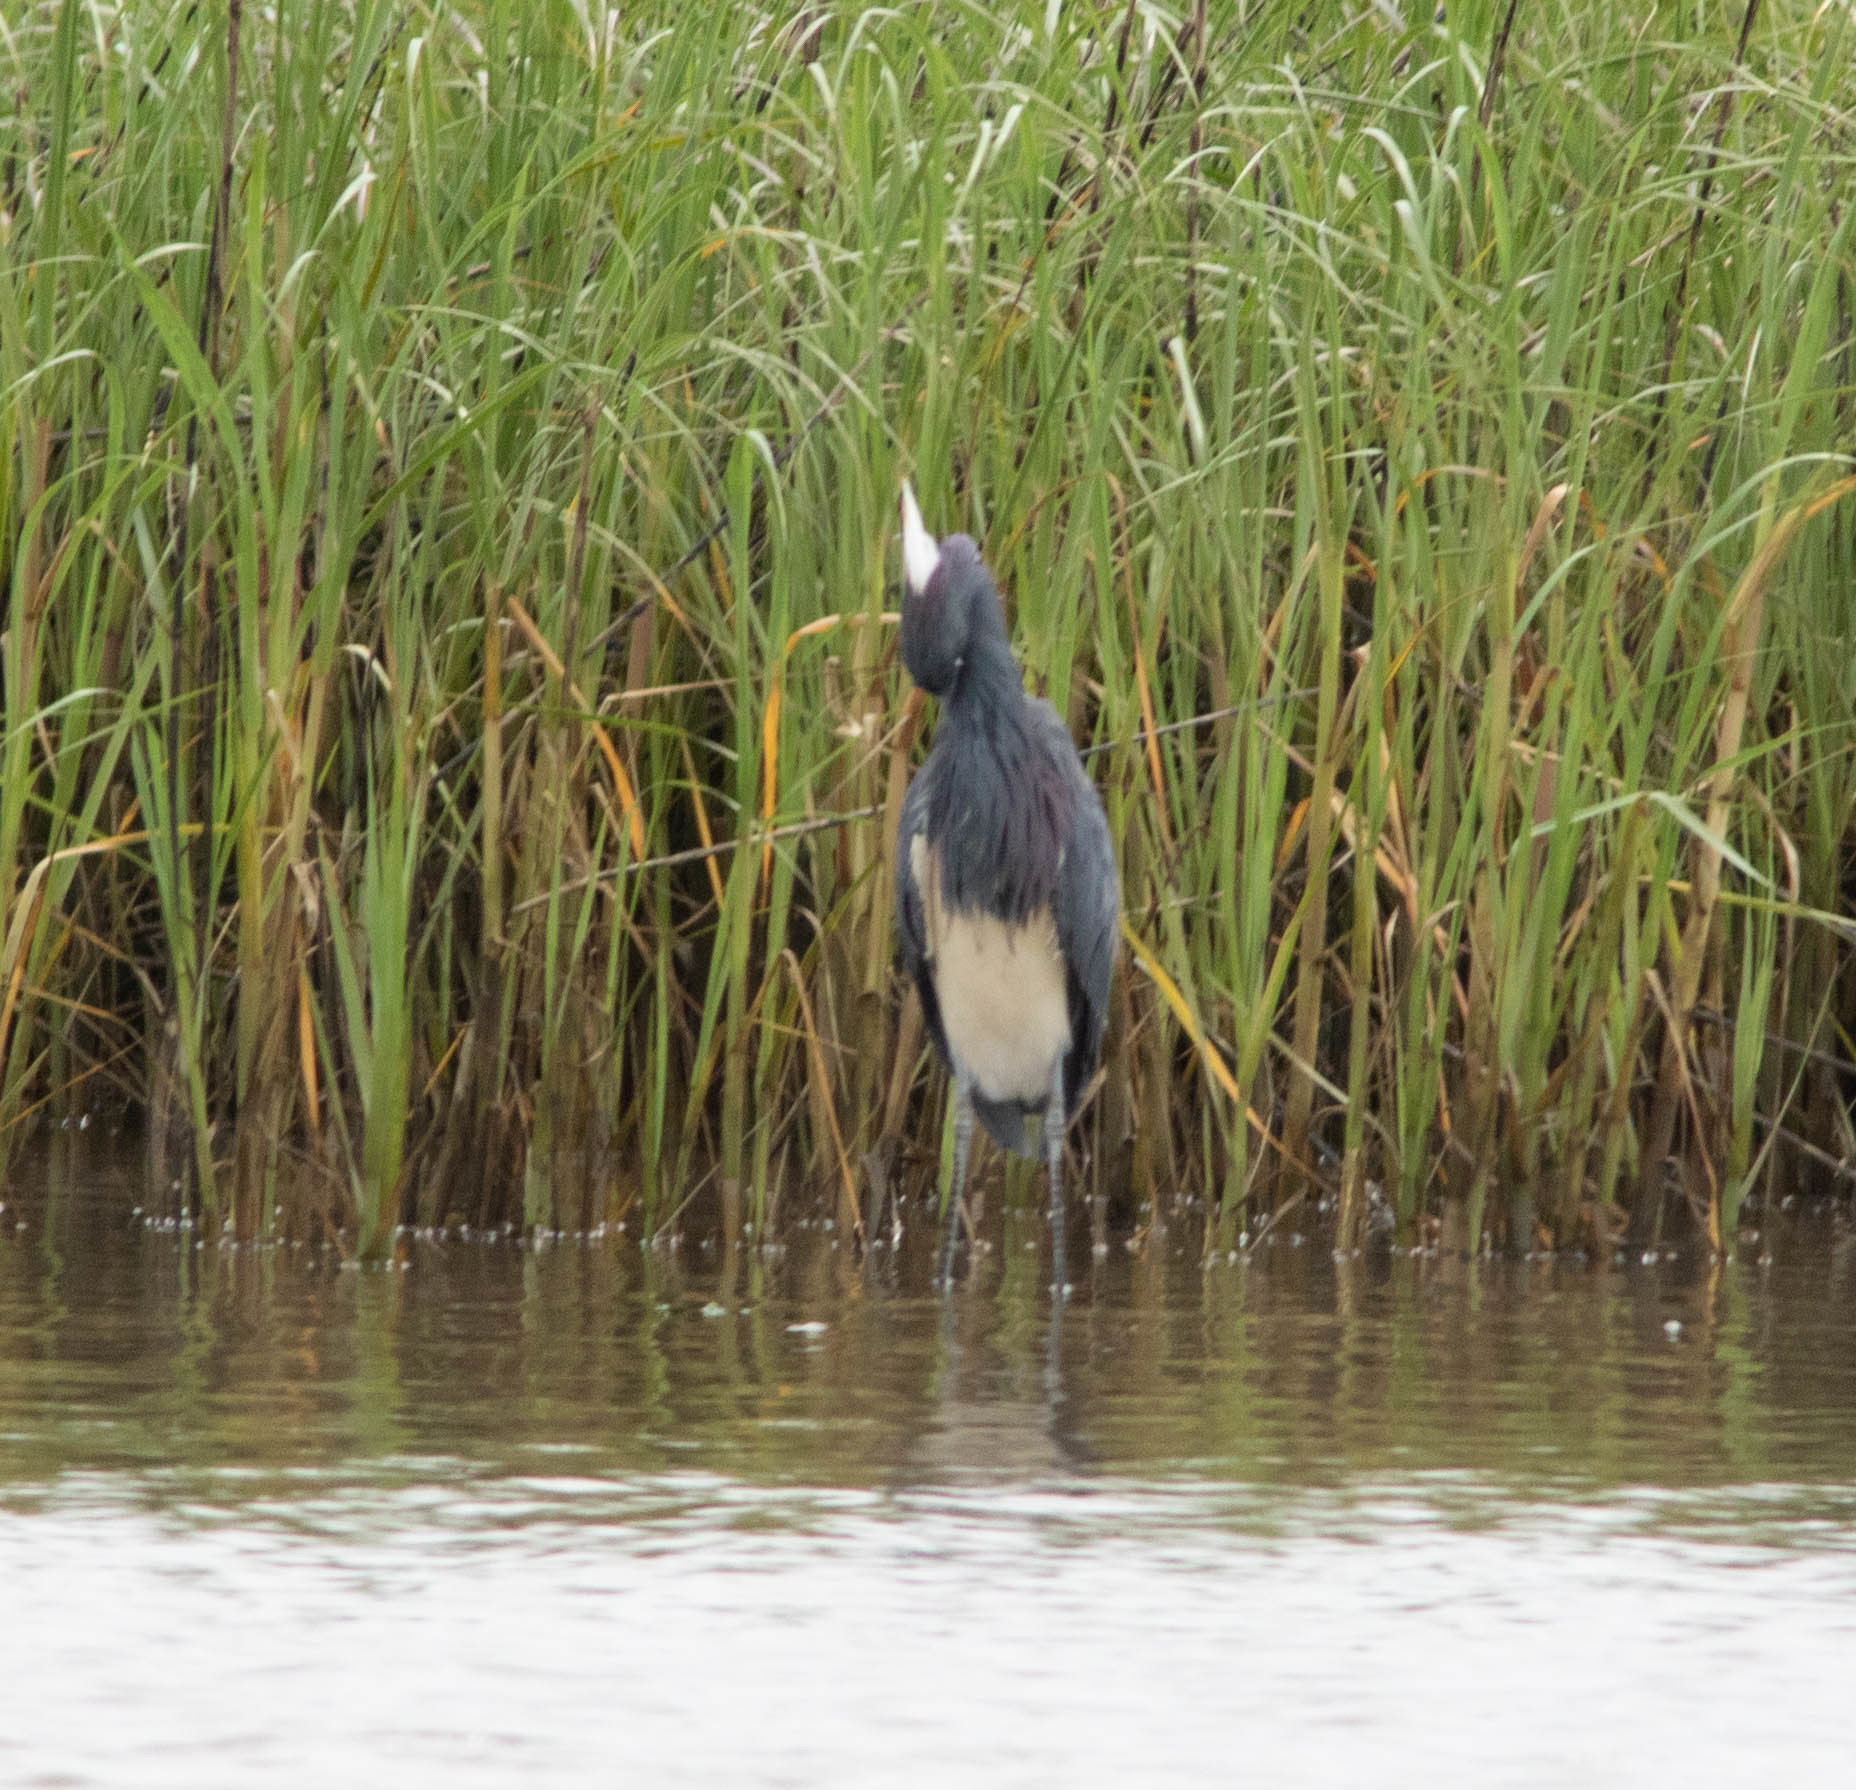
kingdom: Animalia
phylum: Chordata
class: Aves
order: Pelecaniformes
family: Ardeidae
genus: Egretta
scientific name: Egretta tricolor
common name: Tricolored heron
